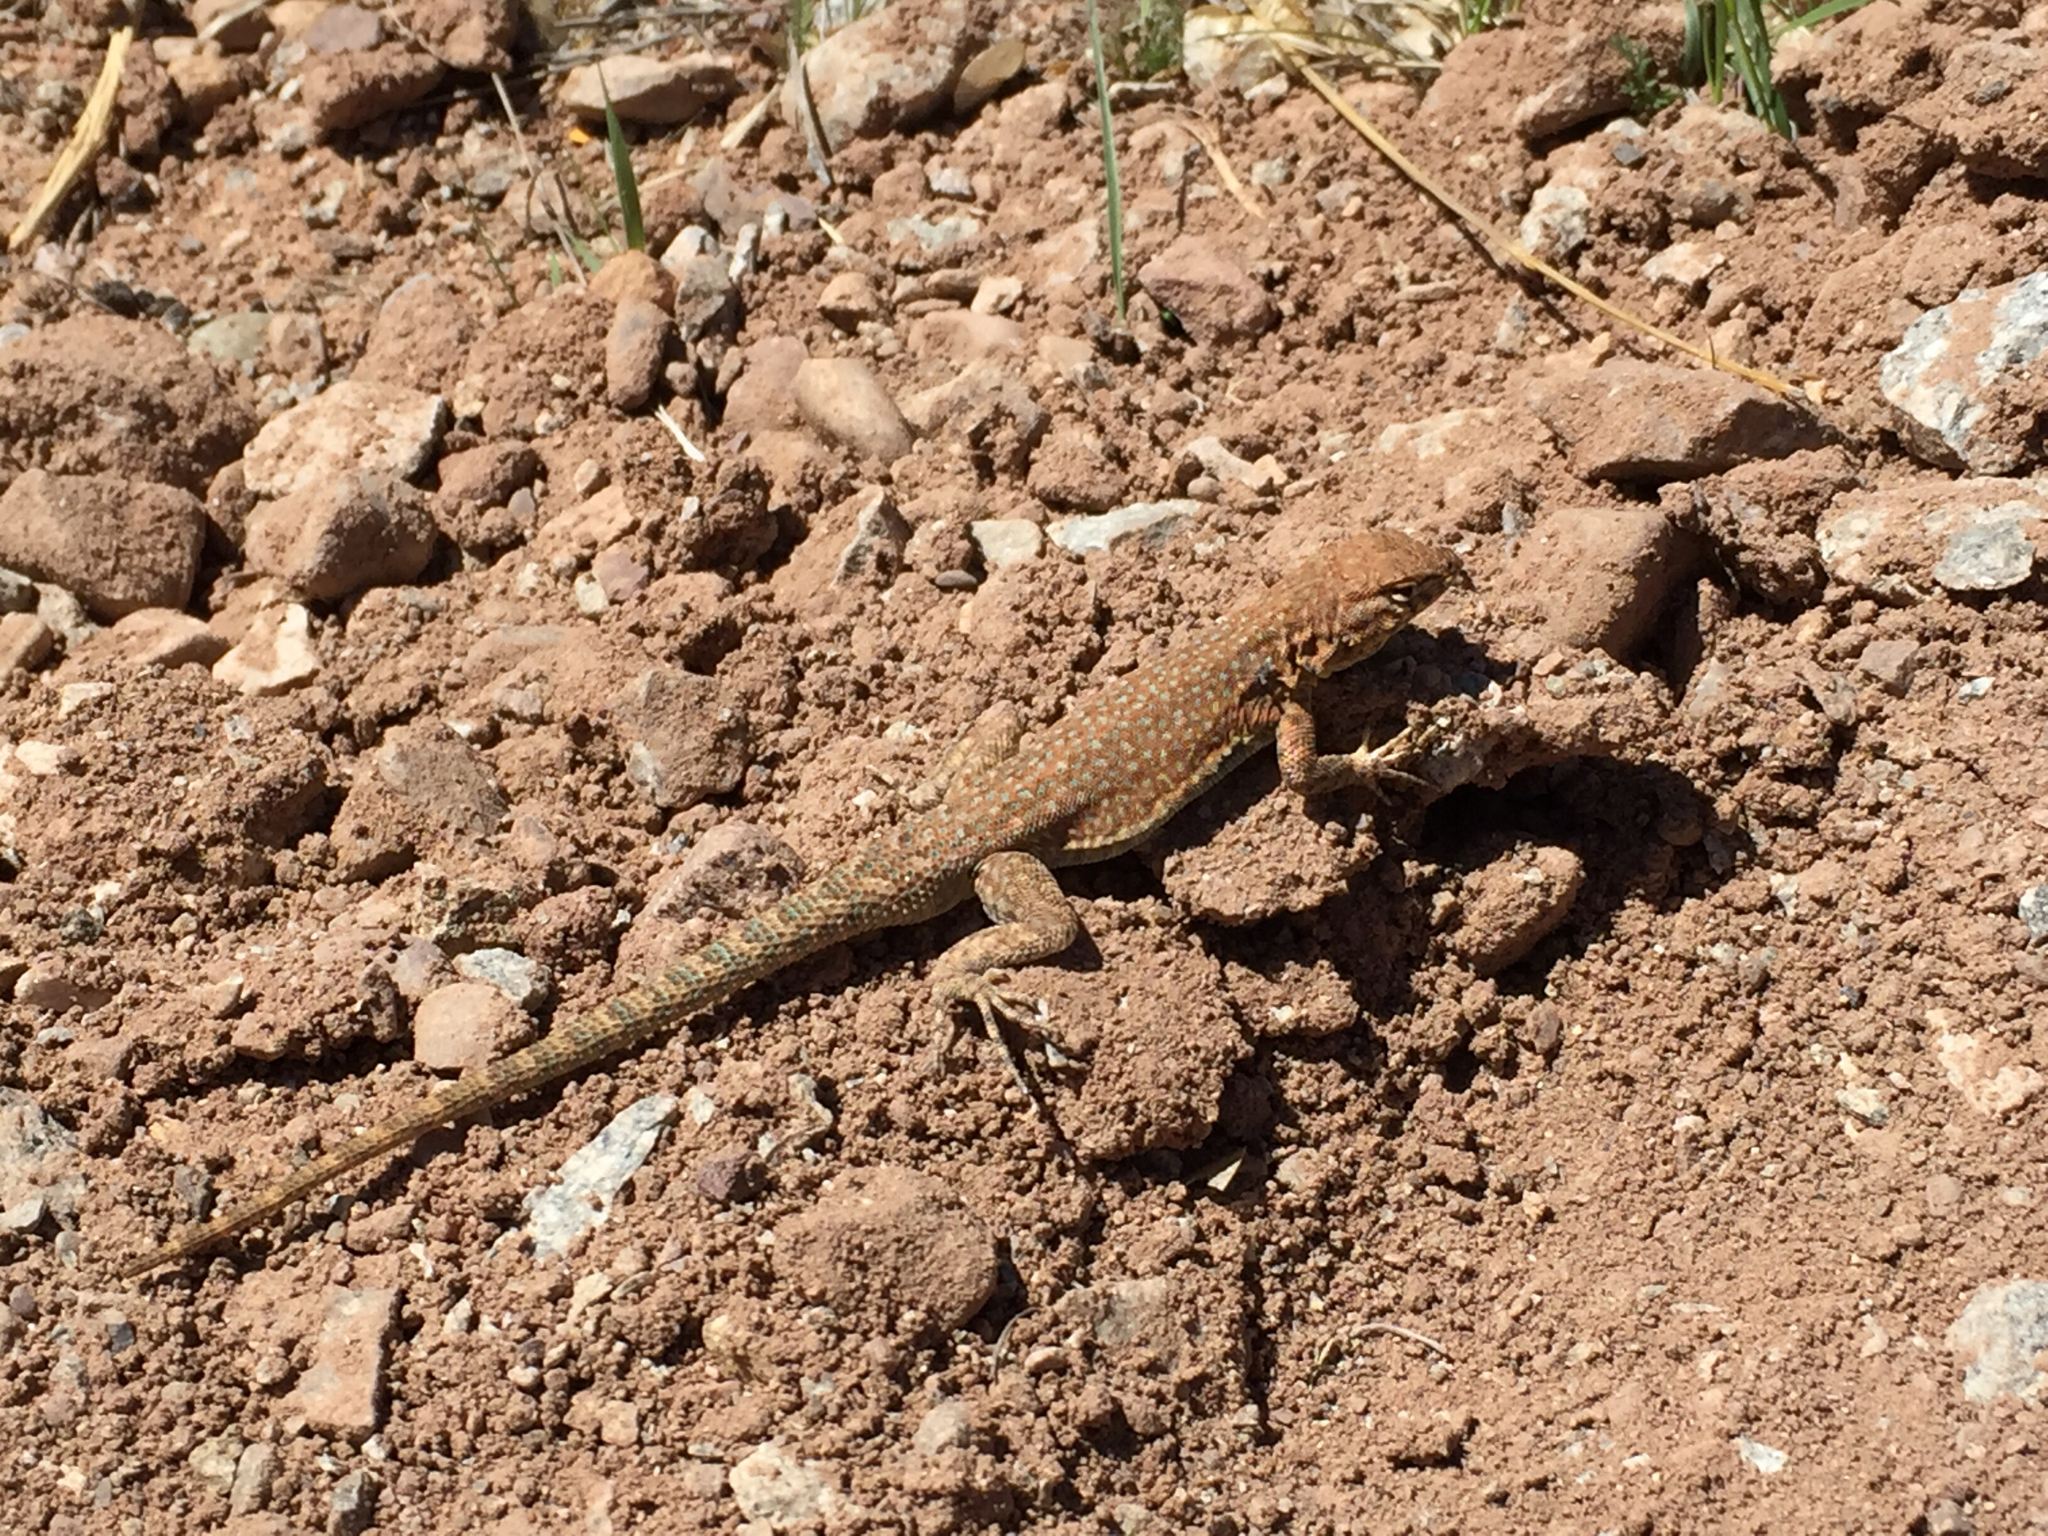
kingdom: Animalia
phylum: Chordata
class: Squamata
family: Phrynosomatidae
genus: Uta
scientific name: Uta stansburiana
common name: Side-blotched lizard
